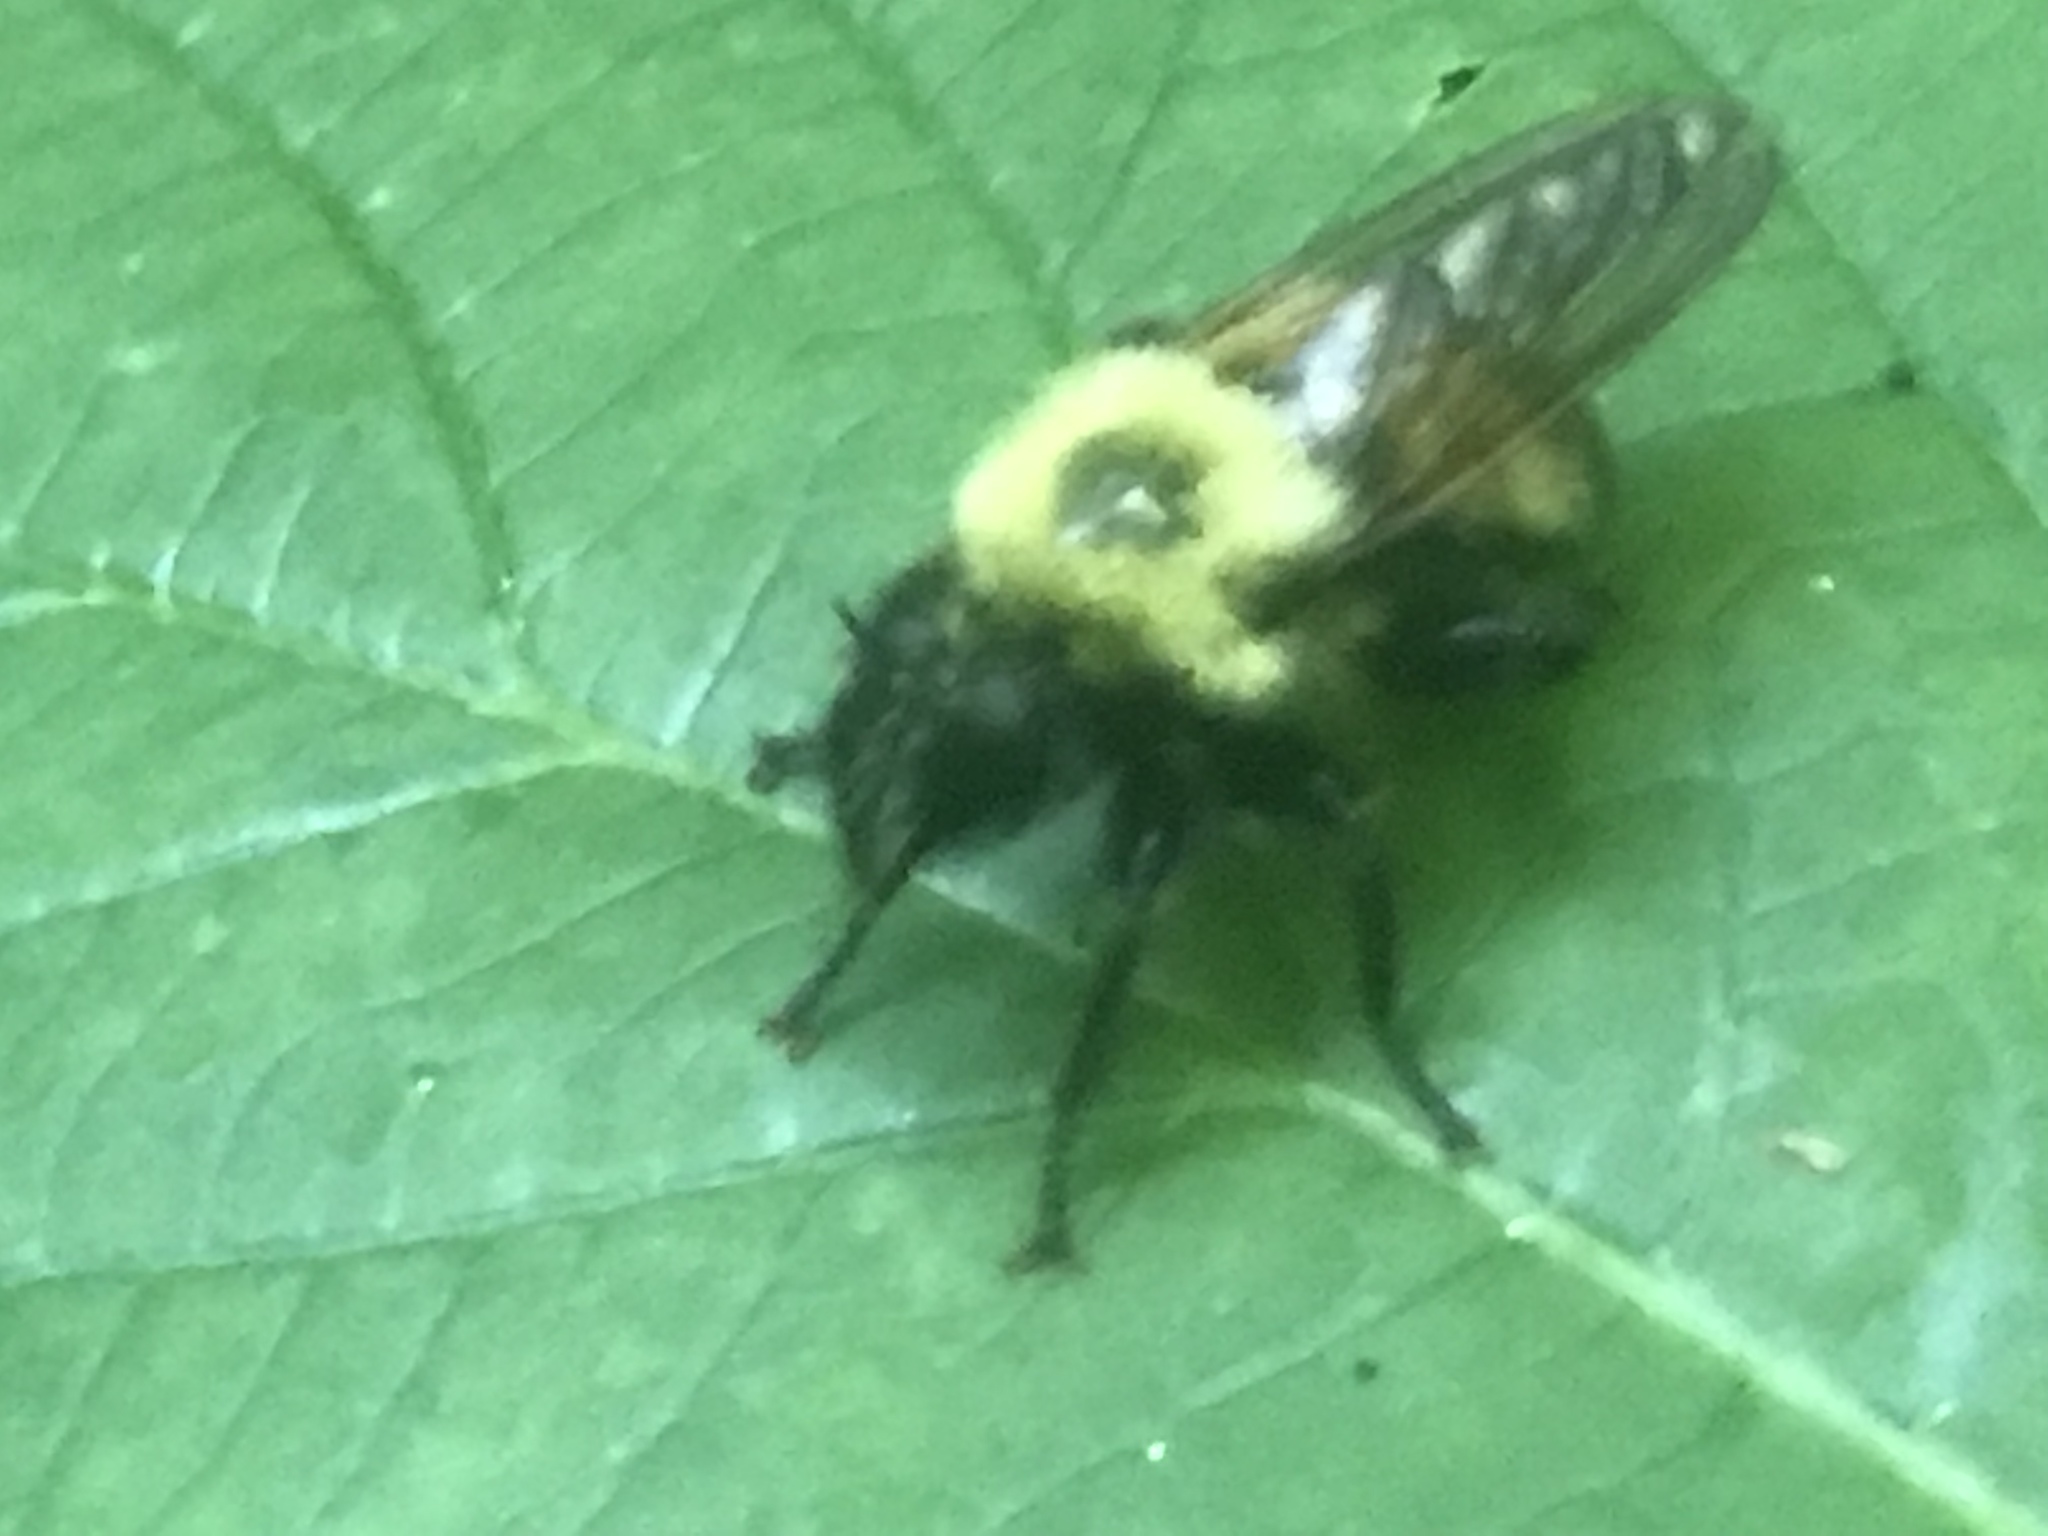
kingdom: Animalia
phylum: Arthropoda
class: Insecta
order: Diptera
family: Asilidae
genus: Laphria
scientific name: Laphria thoracica
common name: Bumble bee mimic robber fly
